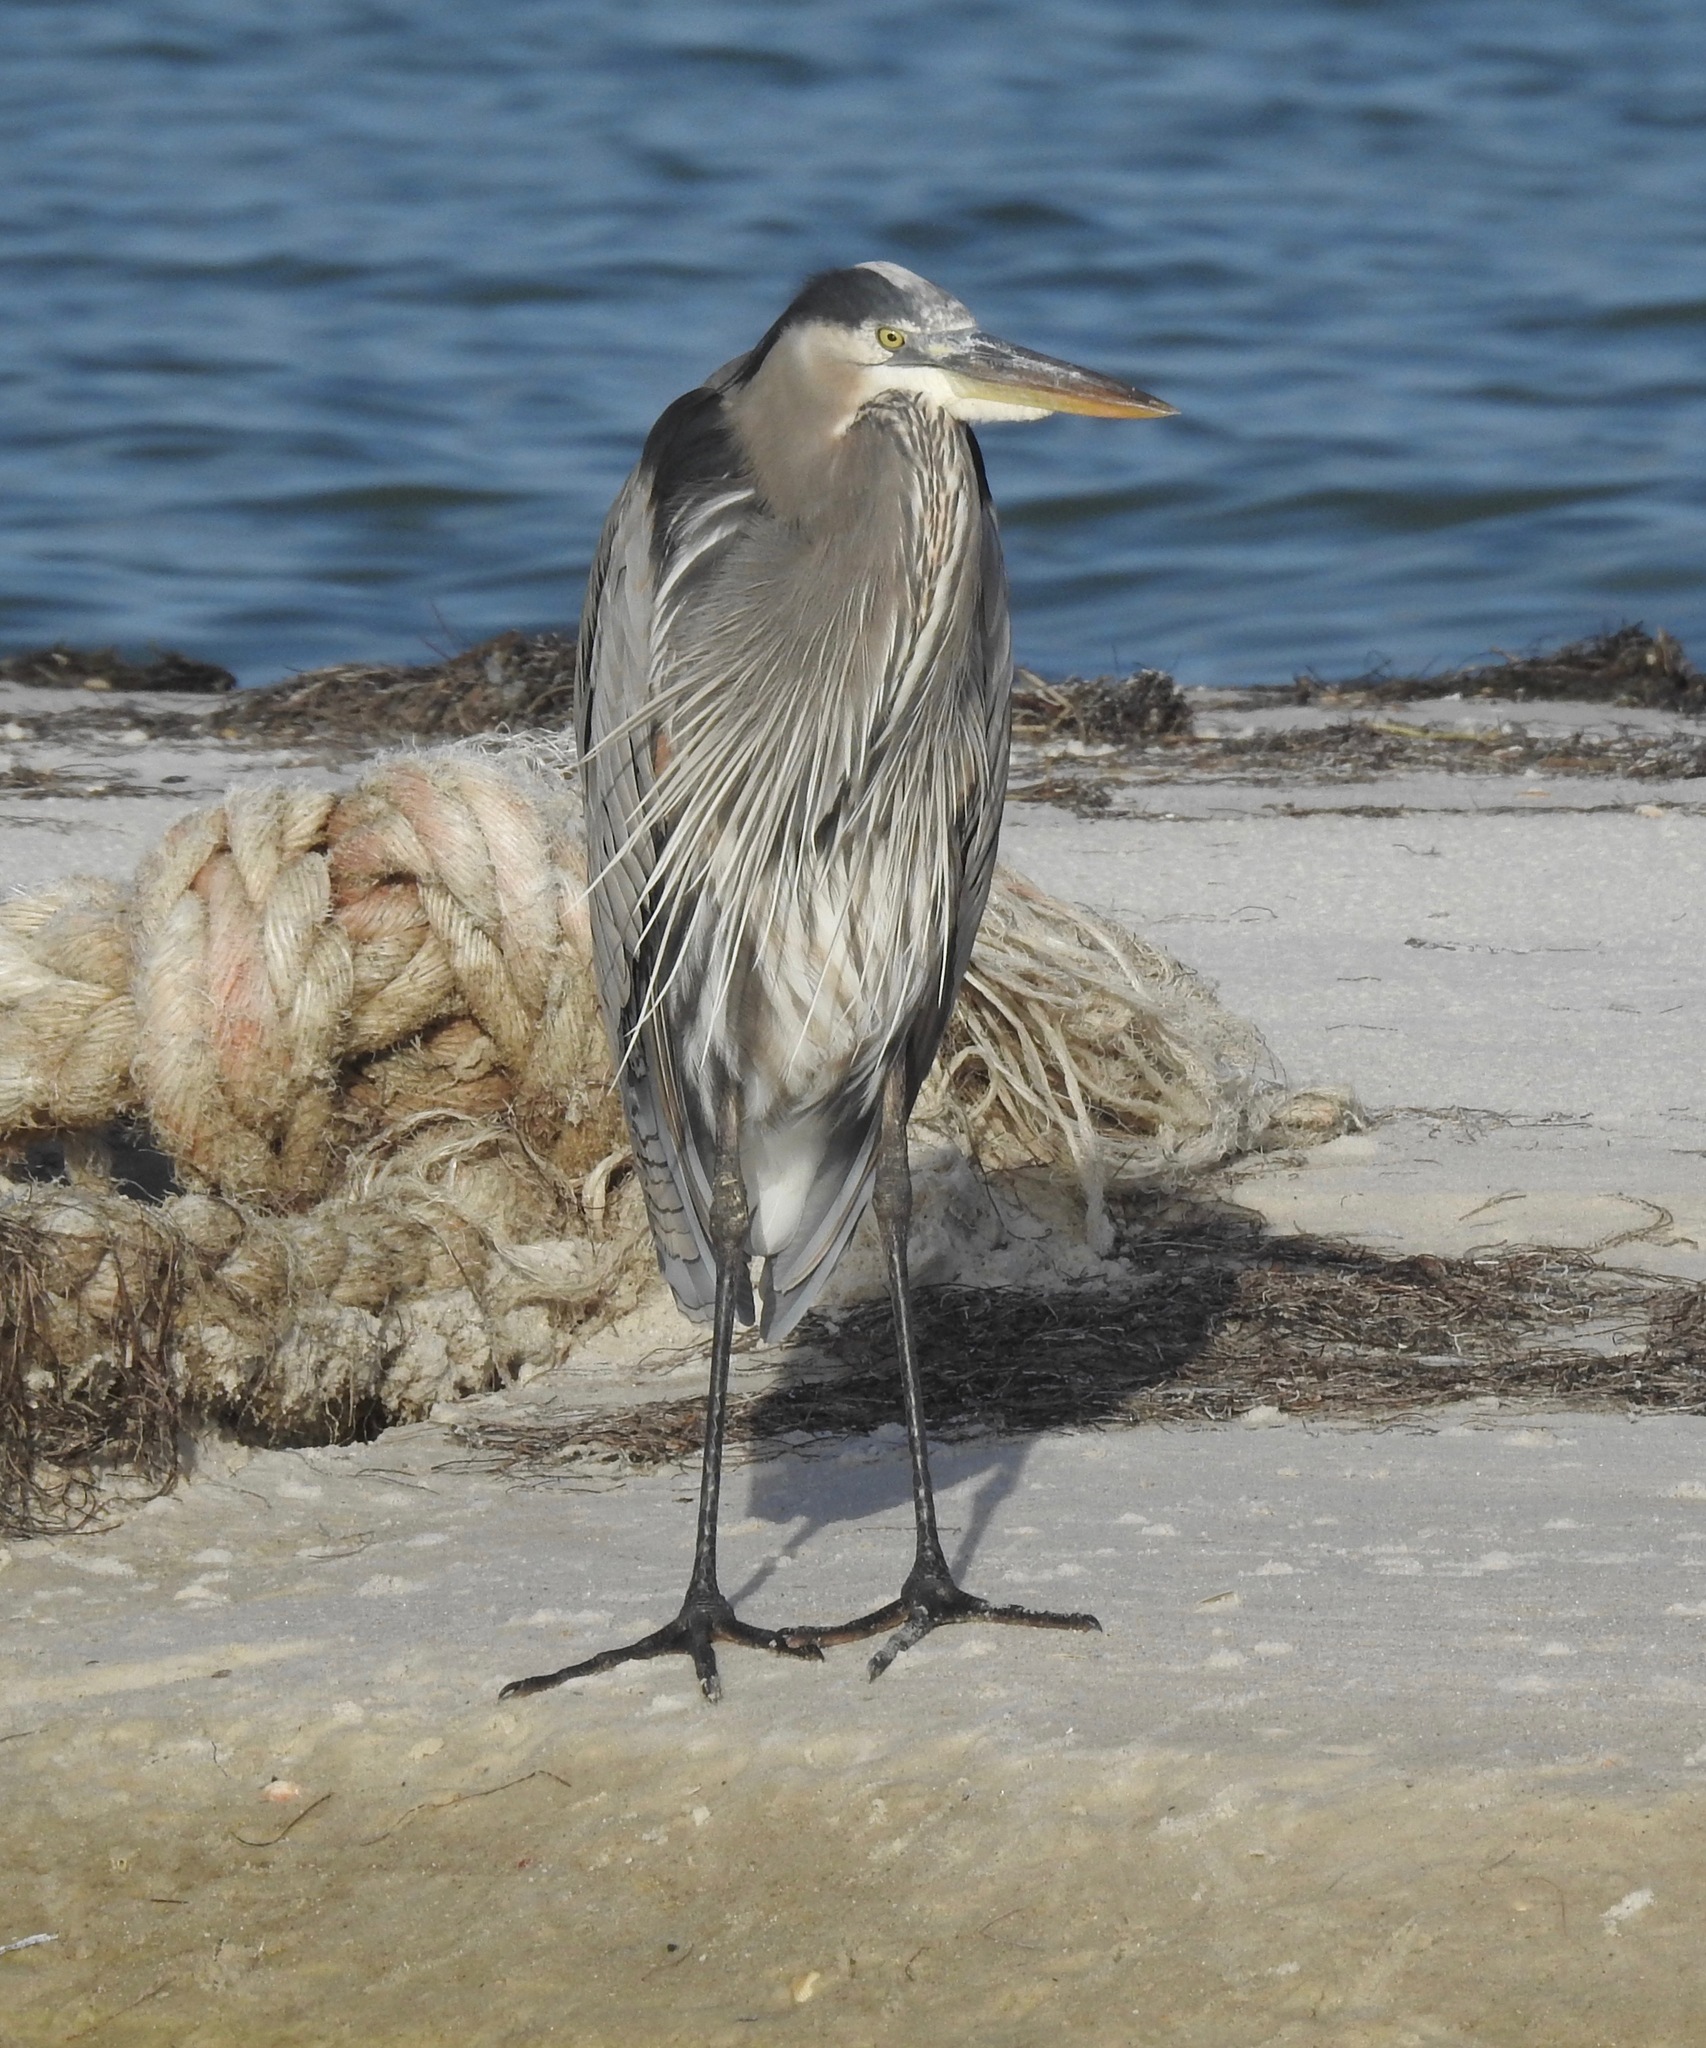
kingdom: Animalia
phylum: Chordata
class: Aves
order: Pelecaniformes
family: Ardeidae
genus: Ardea
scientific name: Ardea herodias
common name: Great blue heron
